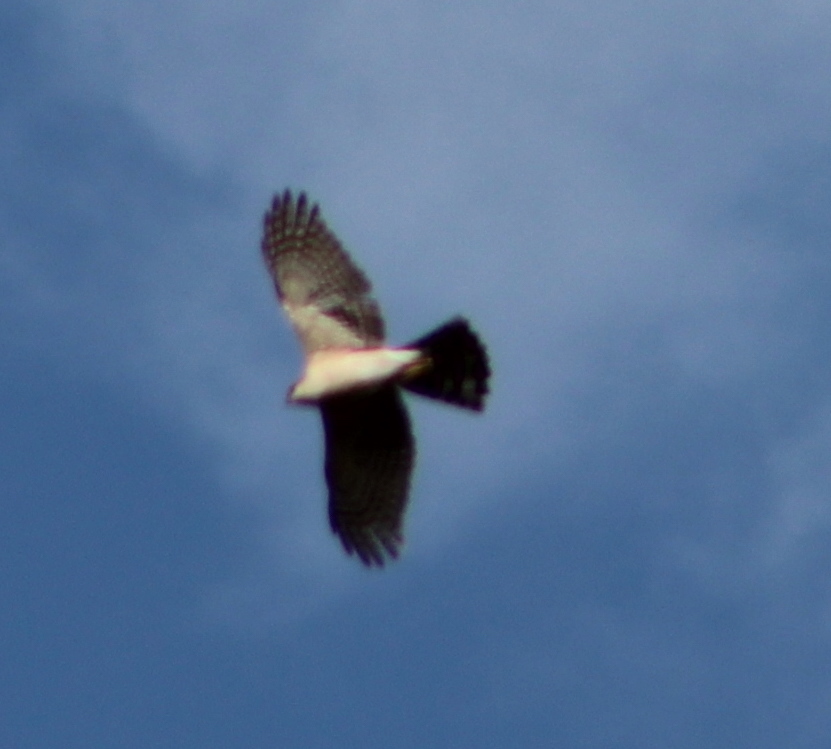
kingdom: Animalia
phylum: Chordata
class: Aves
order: Accipitriformes
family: Accipitridae
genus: Accipiter
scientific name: Accipiter striatus
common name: Sharp-shinned hawk
